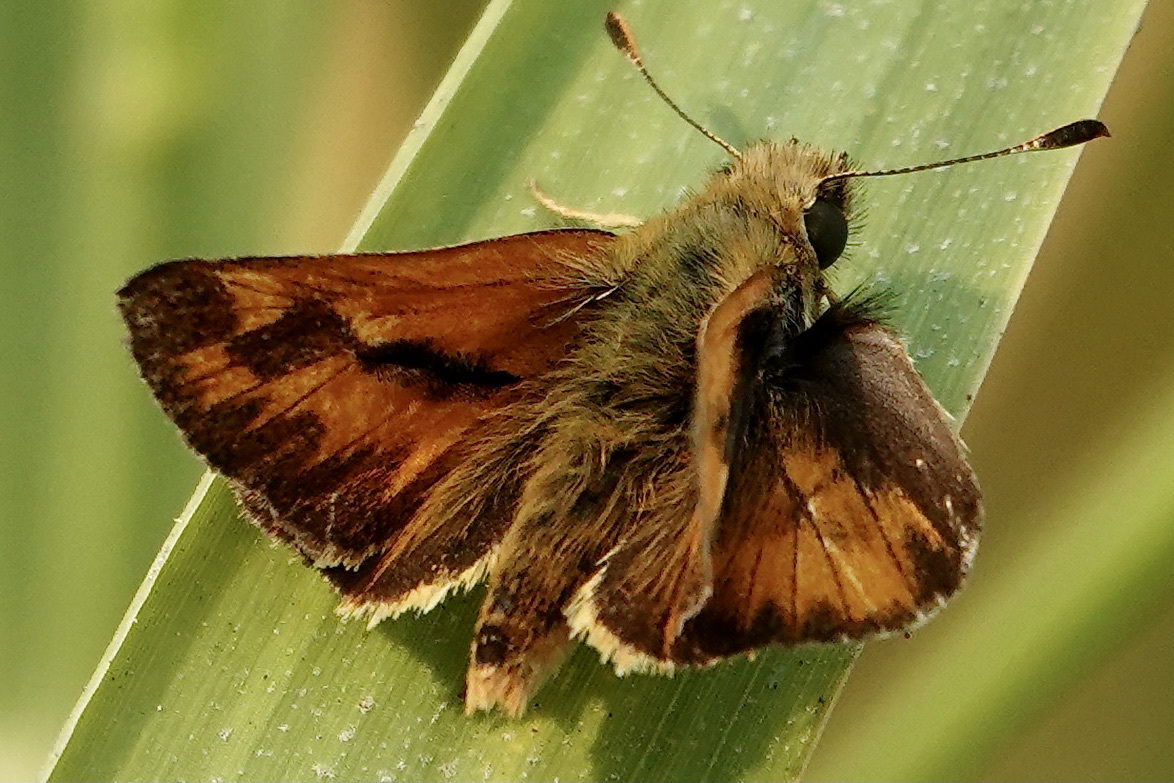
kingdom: Animalia
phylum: Arthropoda
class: Insecta
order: Lepidoptera
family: Hesperiidae
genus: Ochlodes
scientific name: Ochlodes sylvanoides
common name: Woodland skipper
